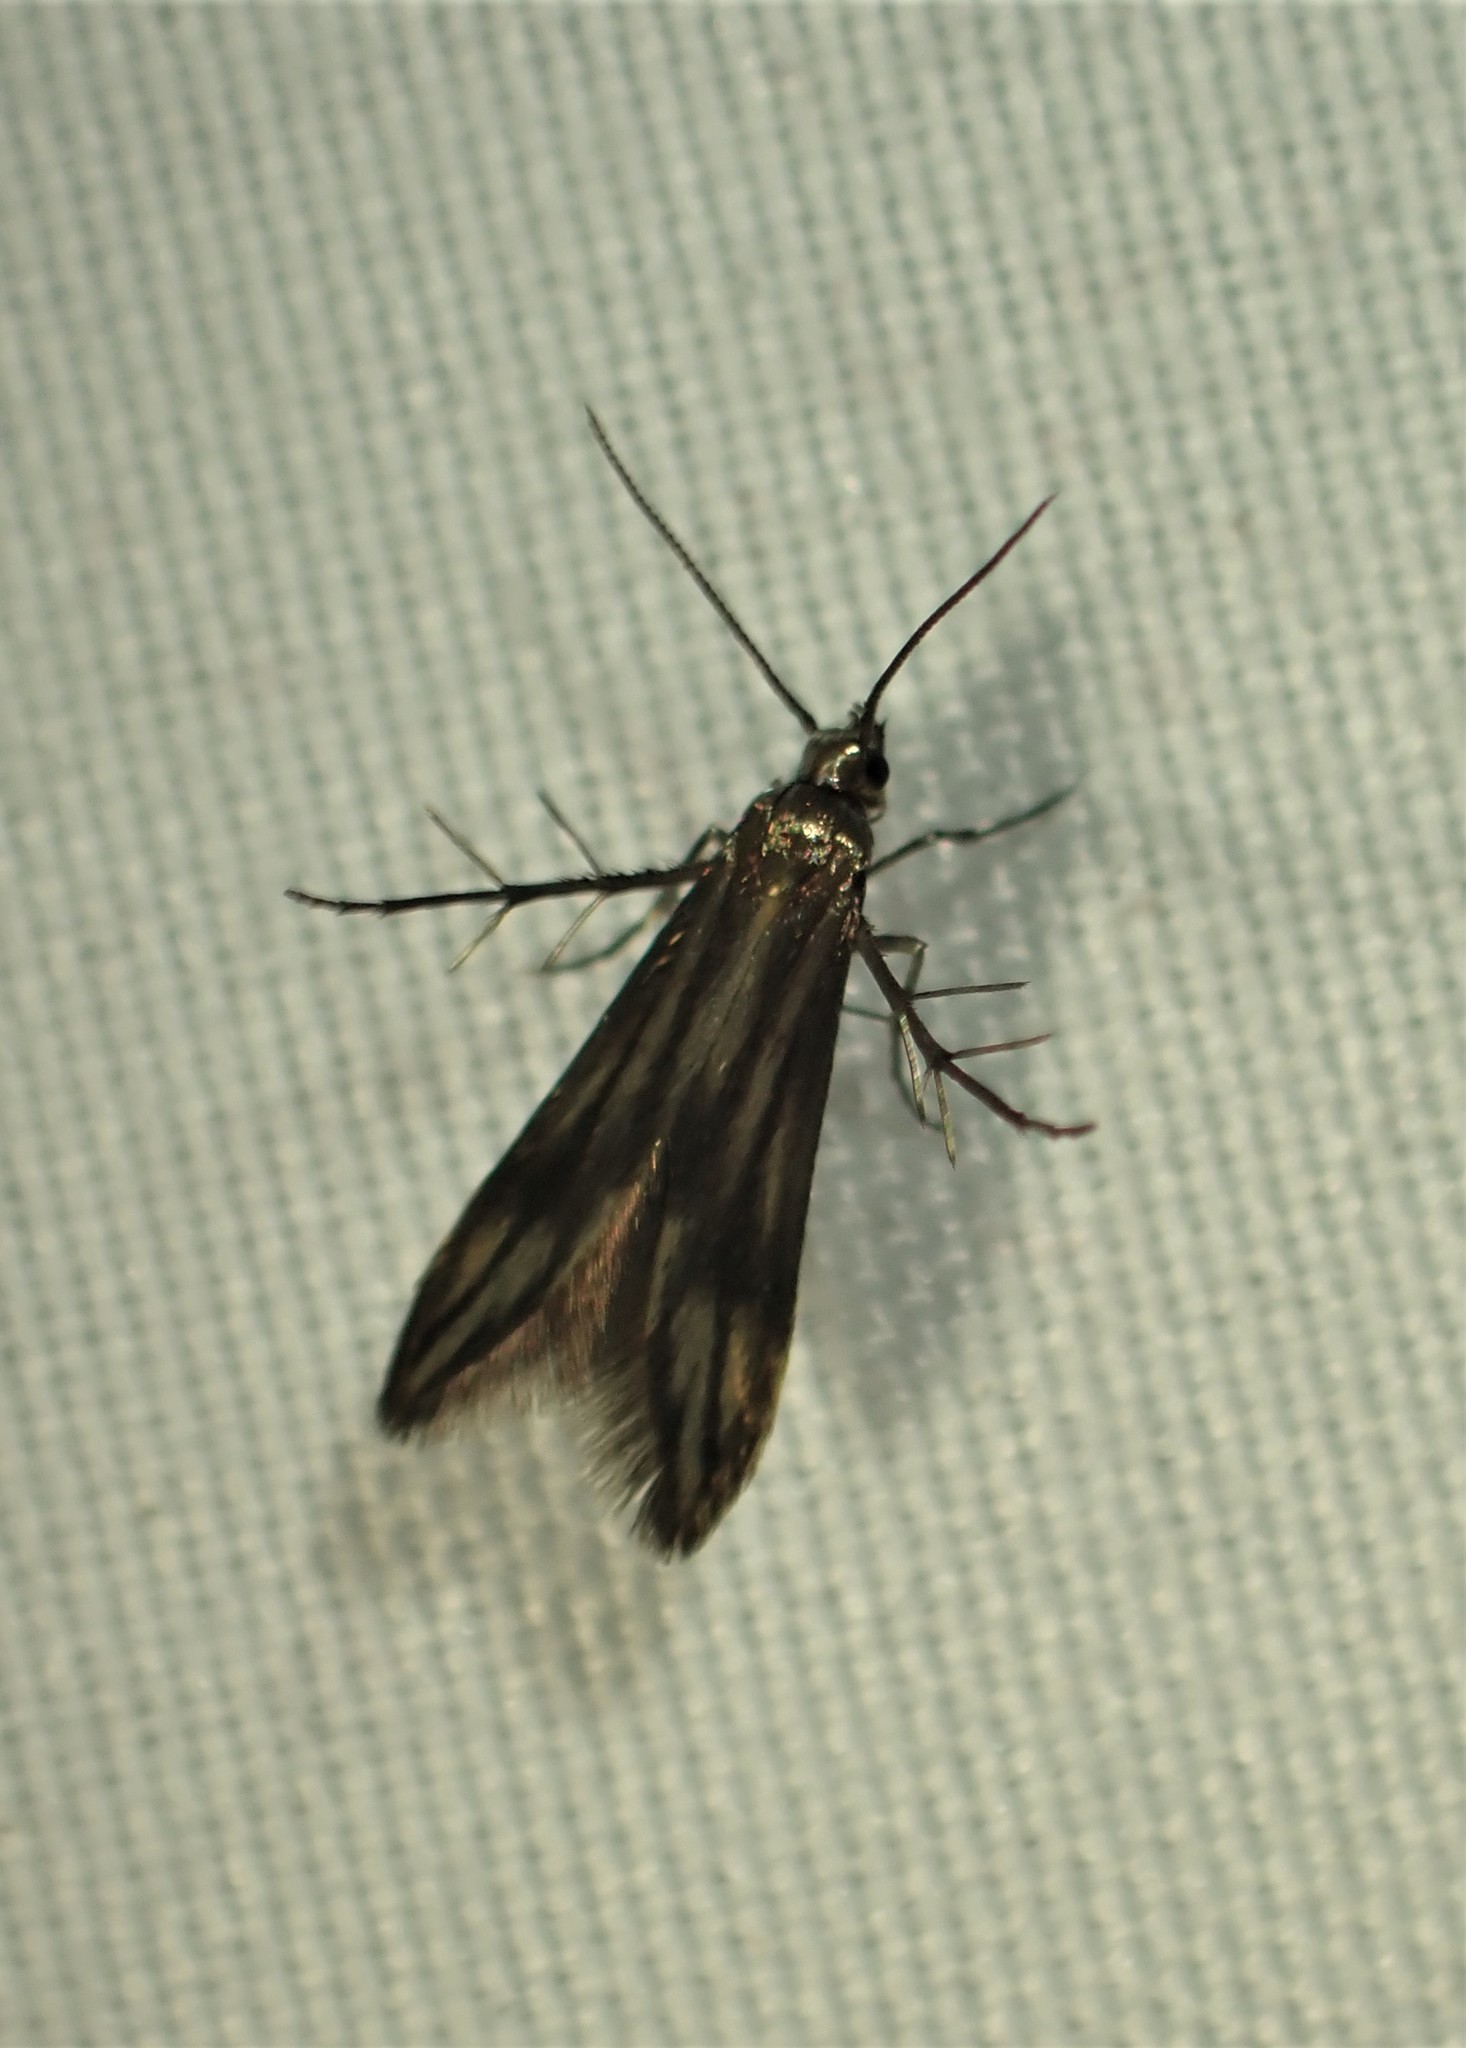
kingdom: Animalia
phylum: Arthropoda
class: Insecta
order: Lepidoptera
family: Schreckensteiniidae
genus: Schreckensteinia
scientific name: Schreckensteinia festaliella
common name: Blackberry skeletonizer
